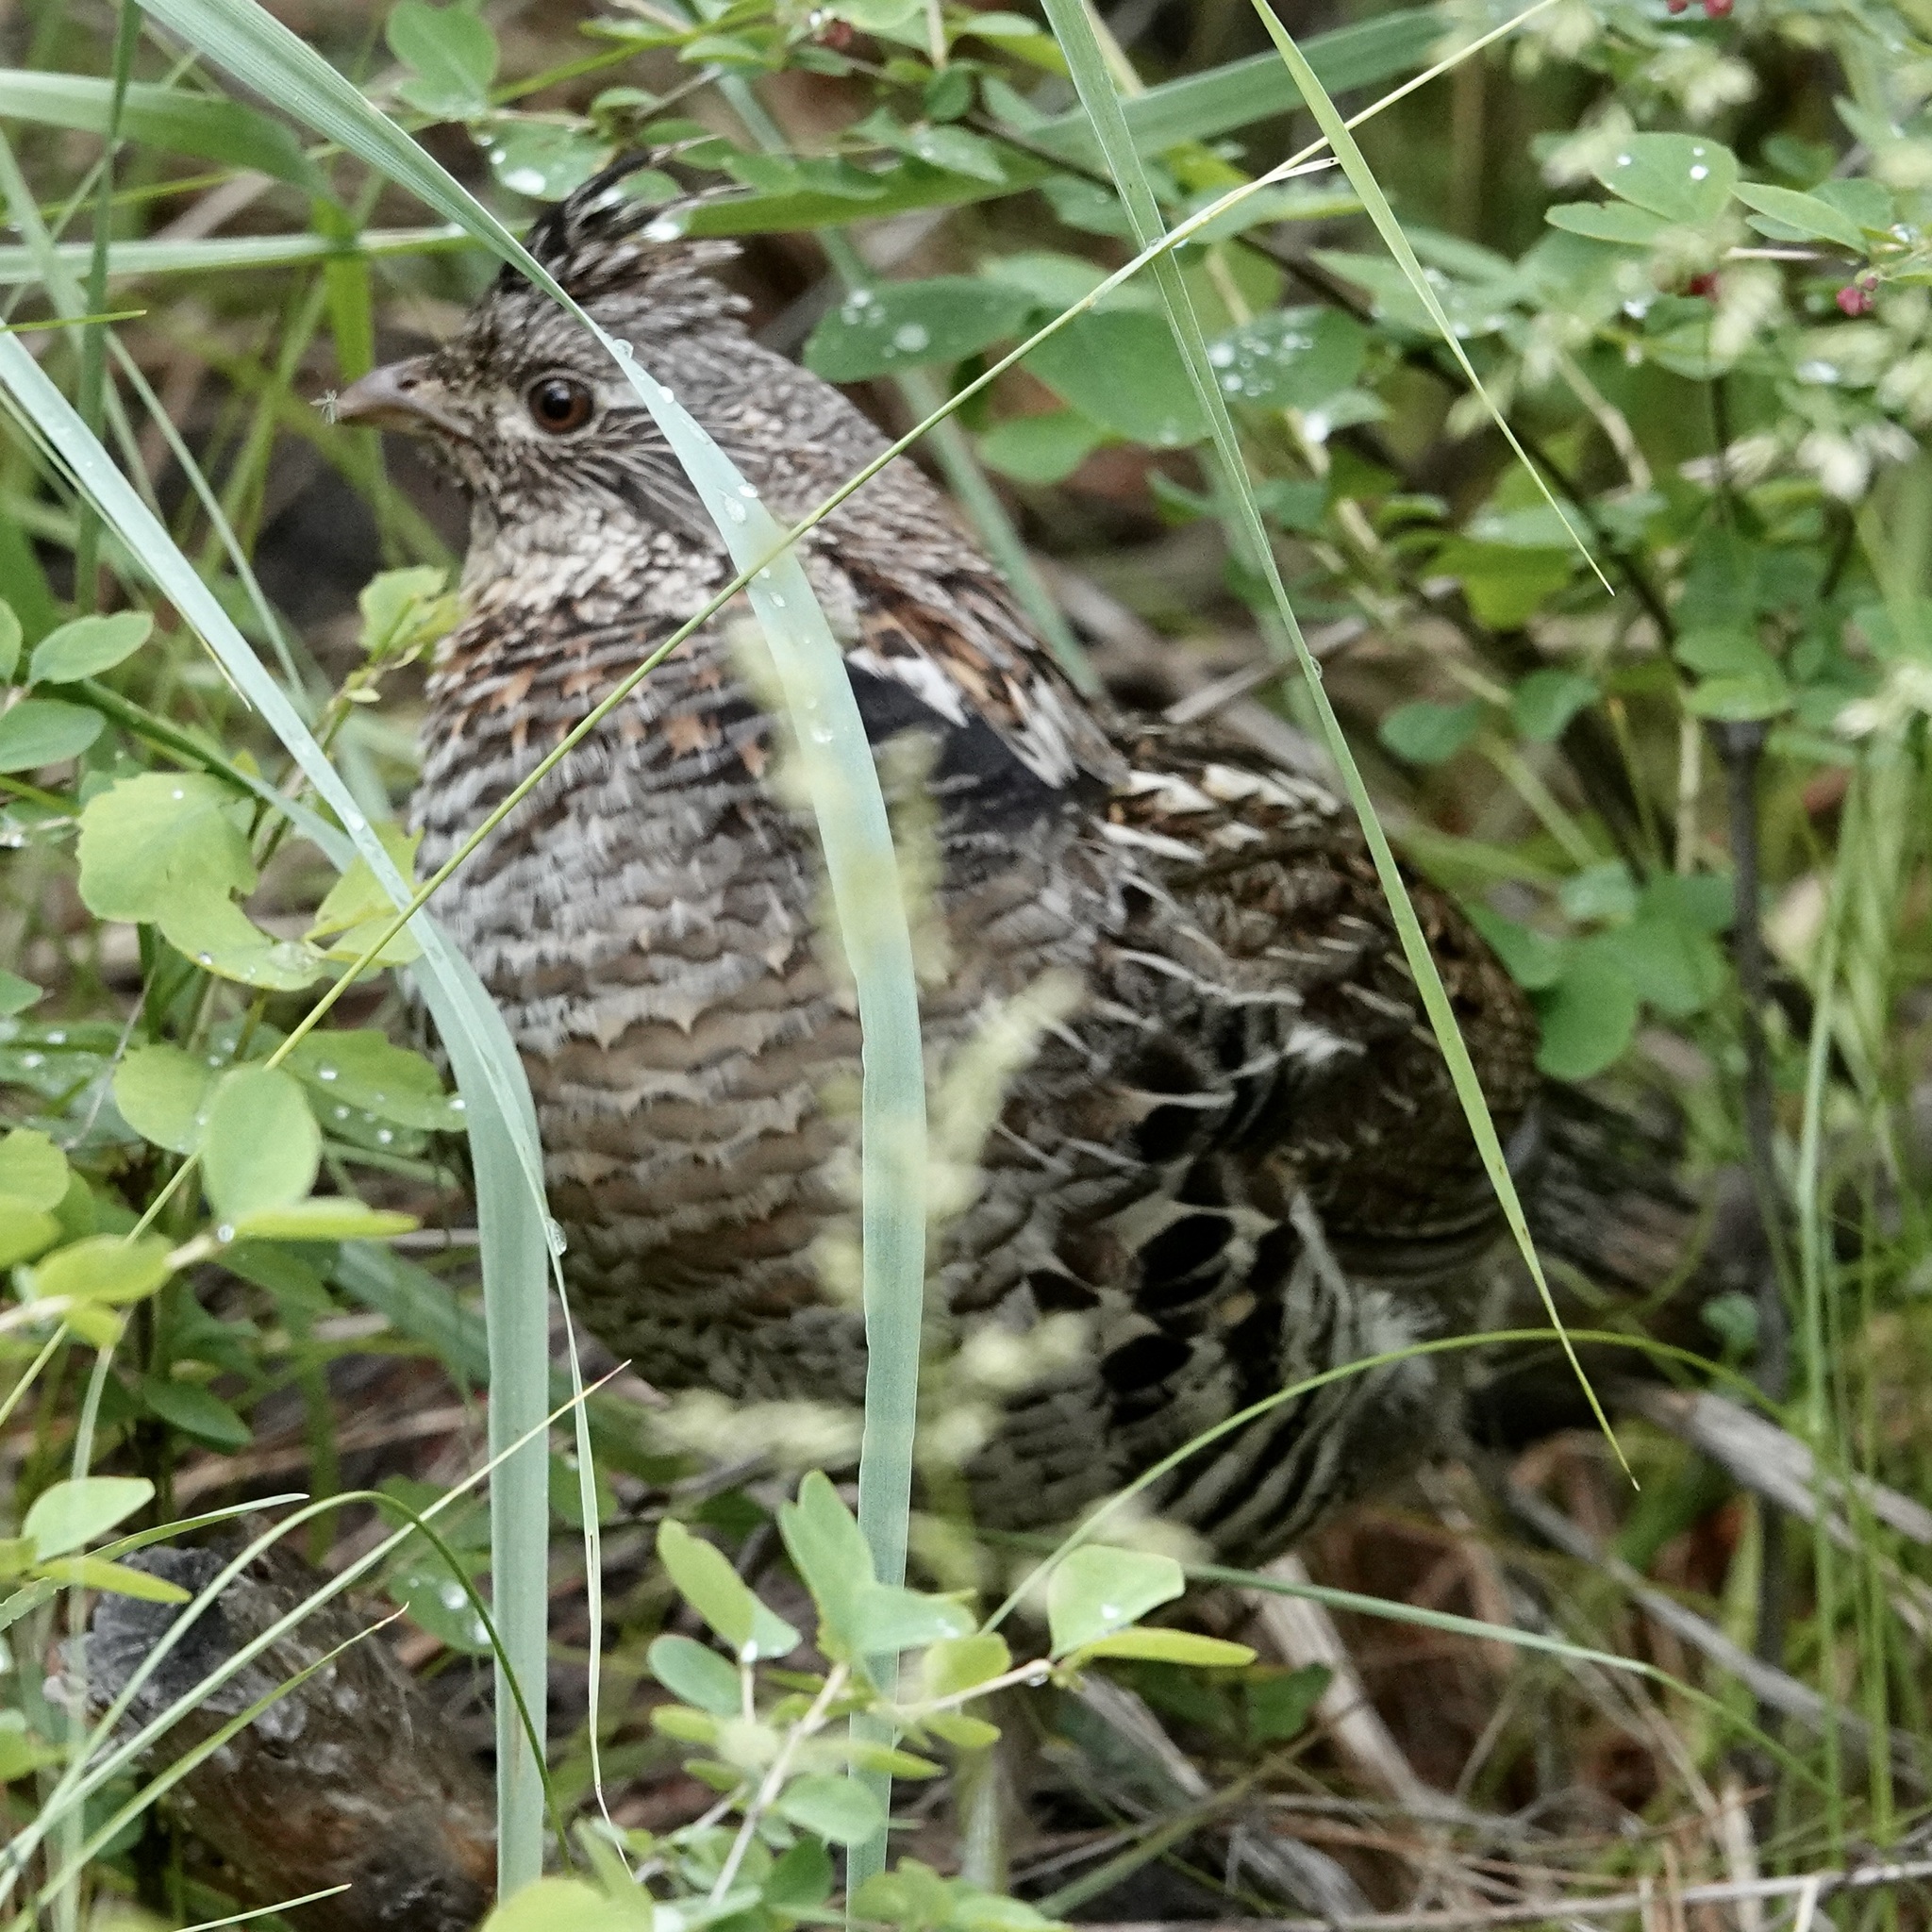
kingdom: Animalia
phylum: Chordata
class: Aves
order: Galliformes
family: Phasianidae
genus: Bonasa
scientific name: Bonasa umbellus
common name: Ruffed grouse
